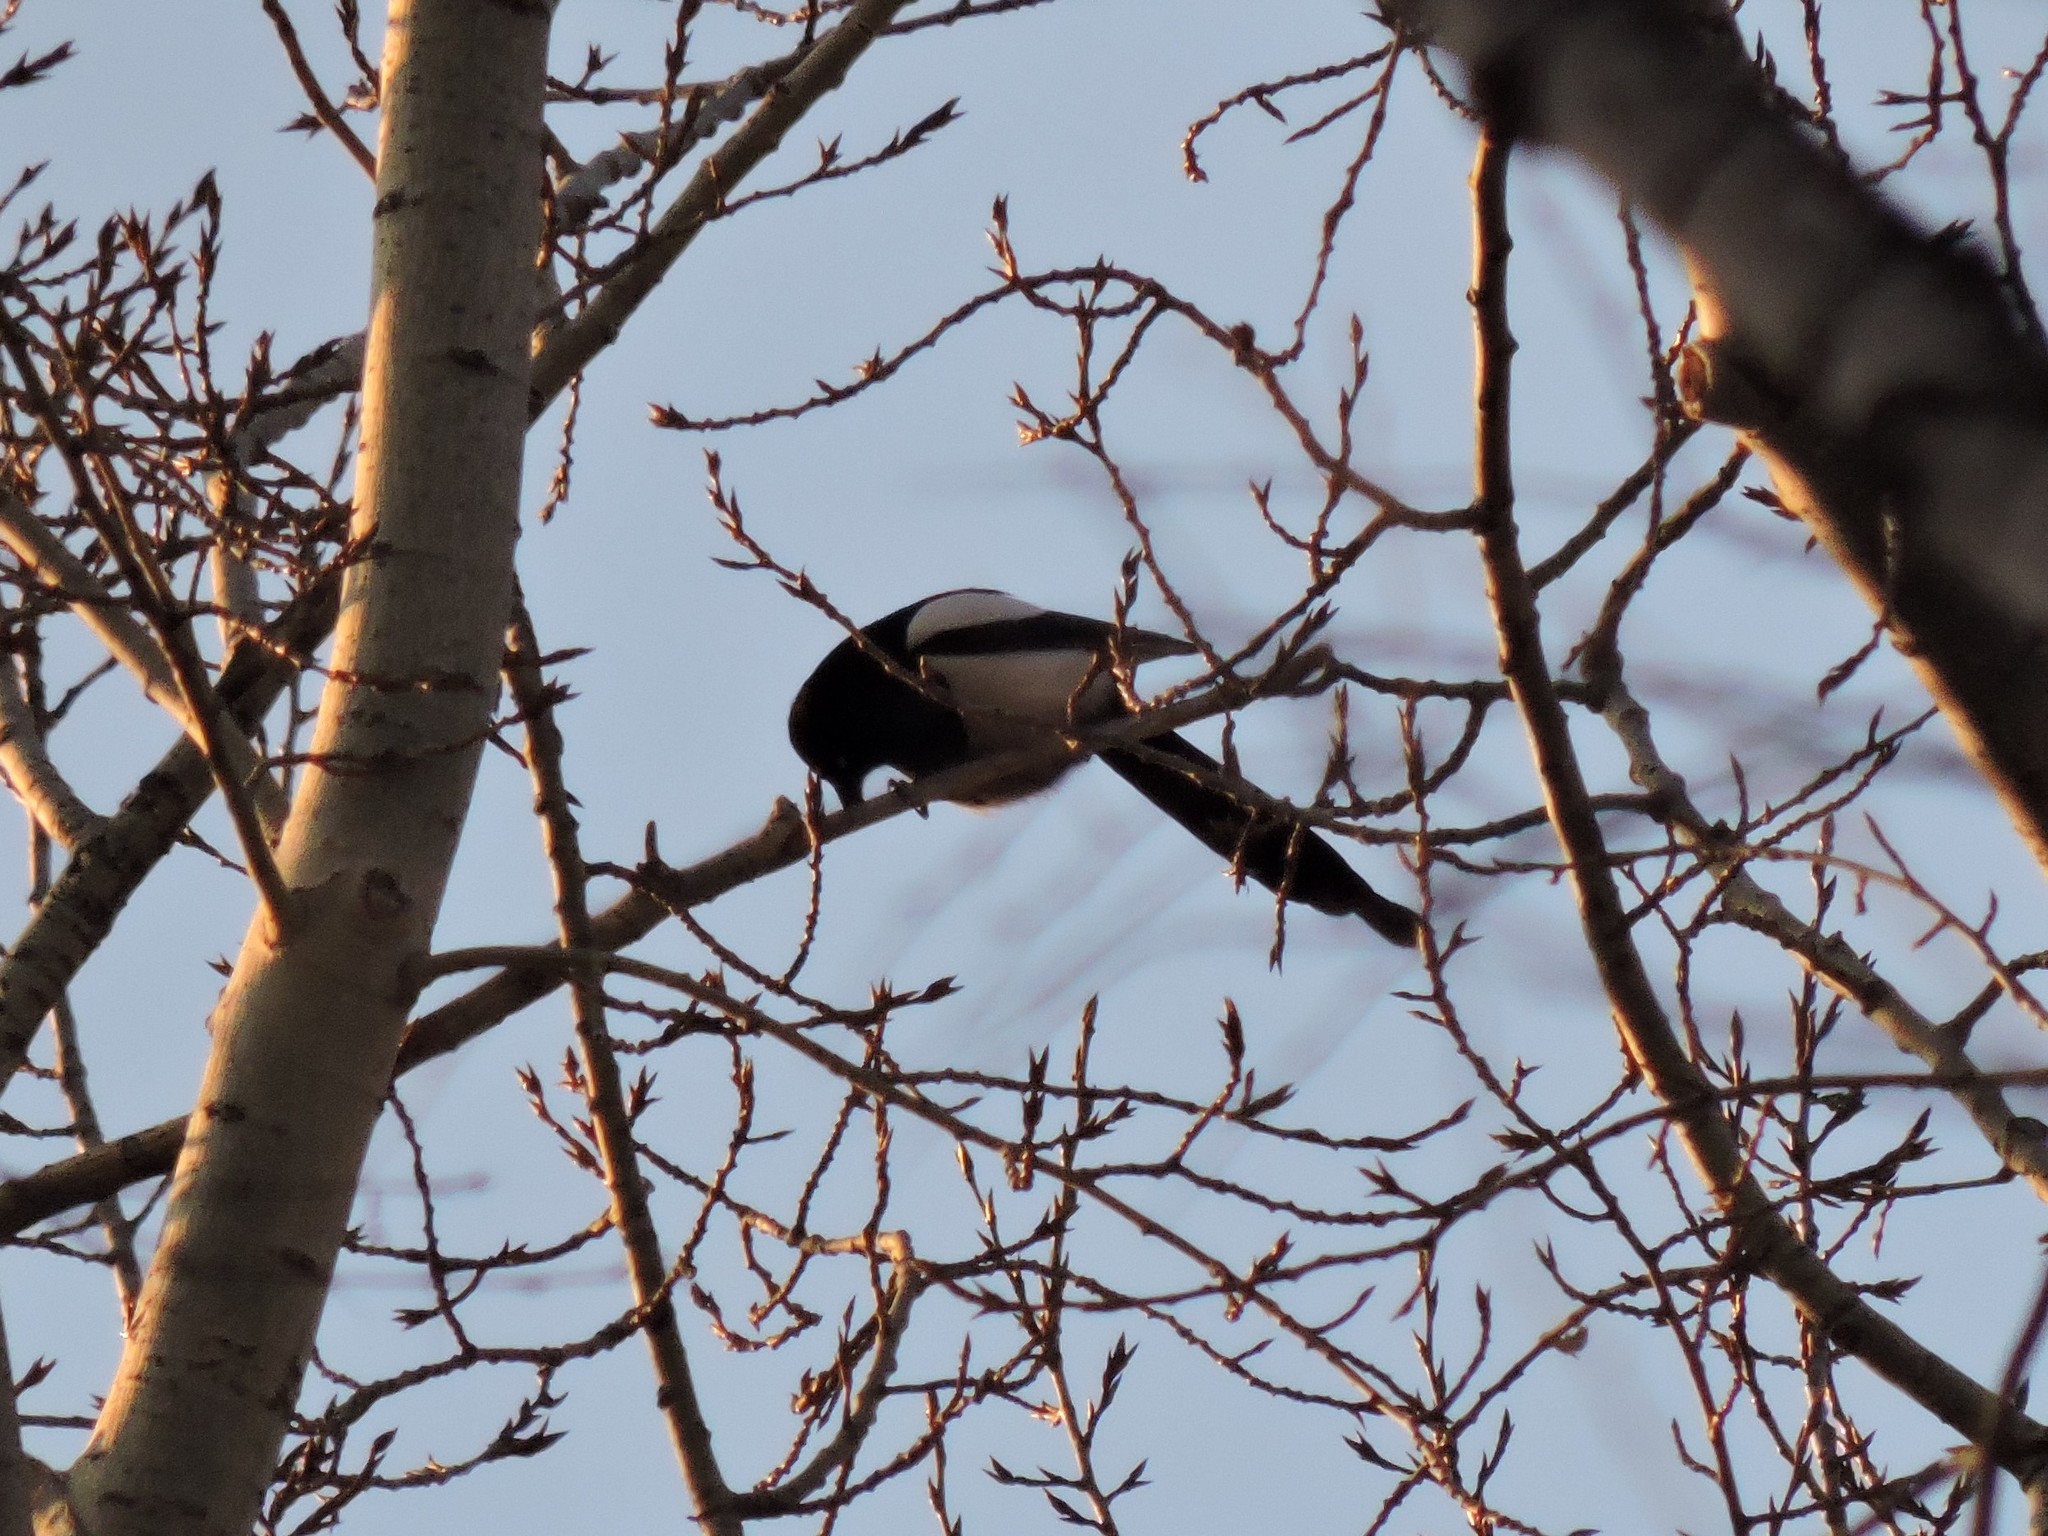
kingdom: Animalia
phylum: Chordata
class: Aves
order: Passeriformes
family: Corvidae
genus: Pica
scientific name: Pica pica
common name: Eurasian magpie
